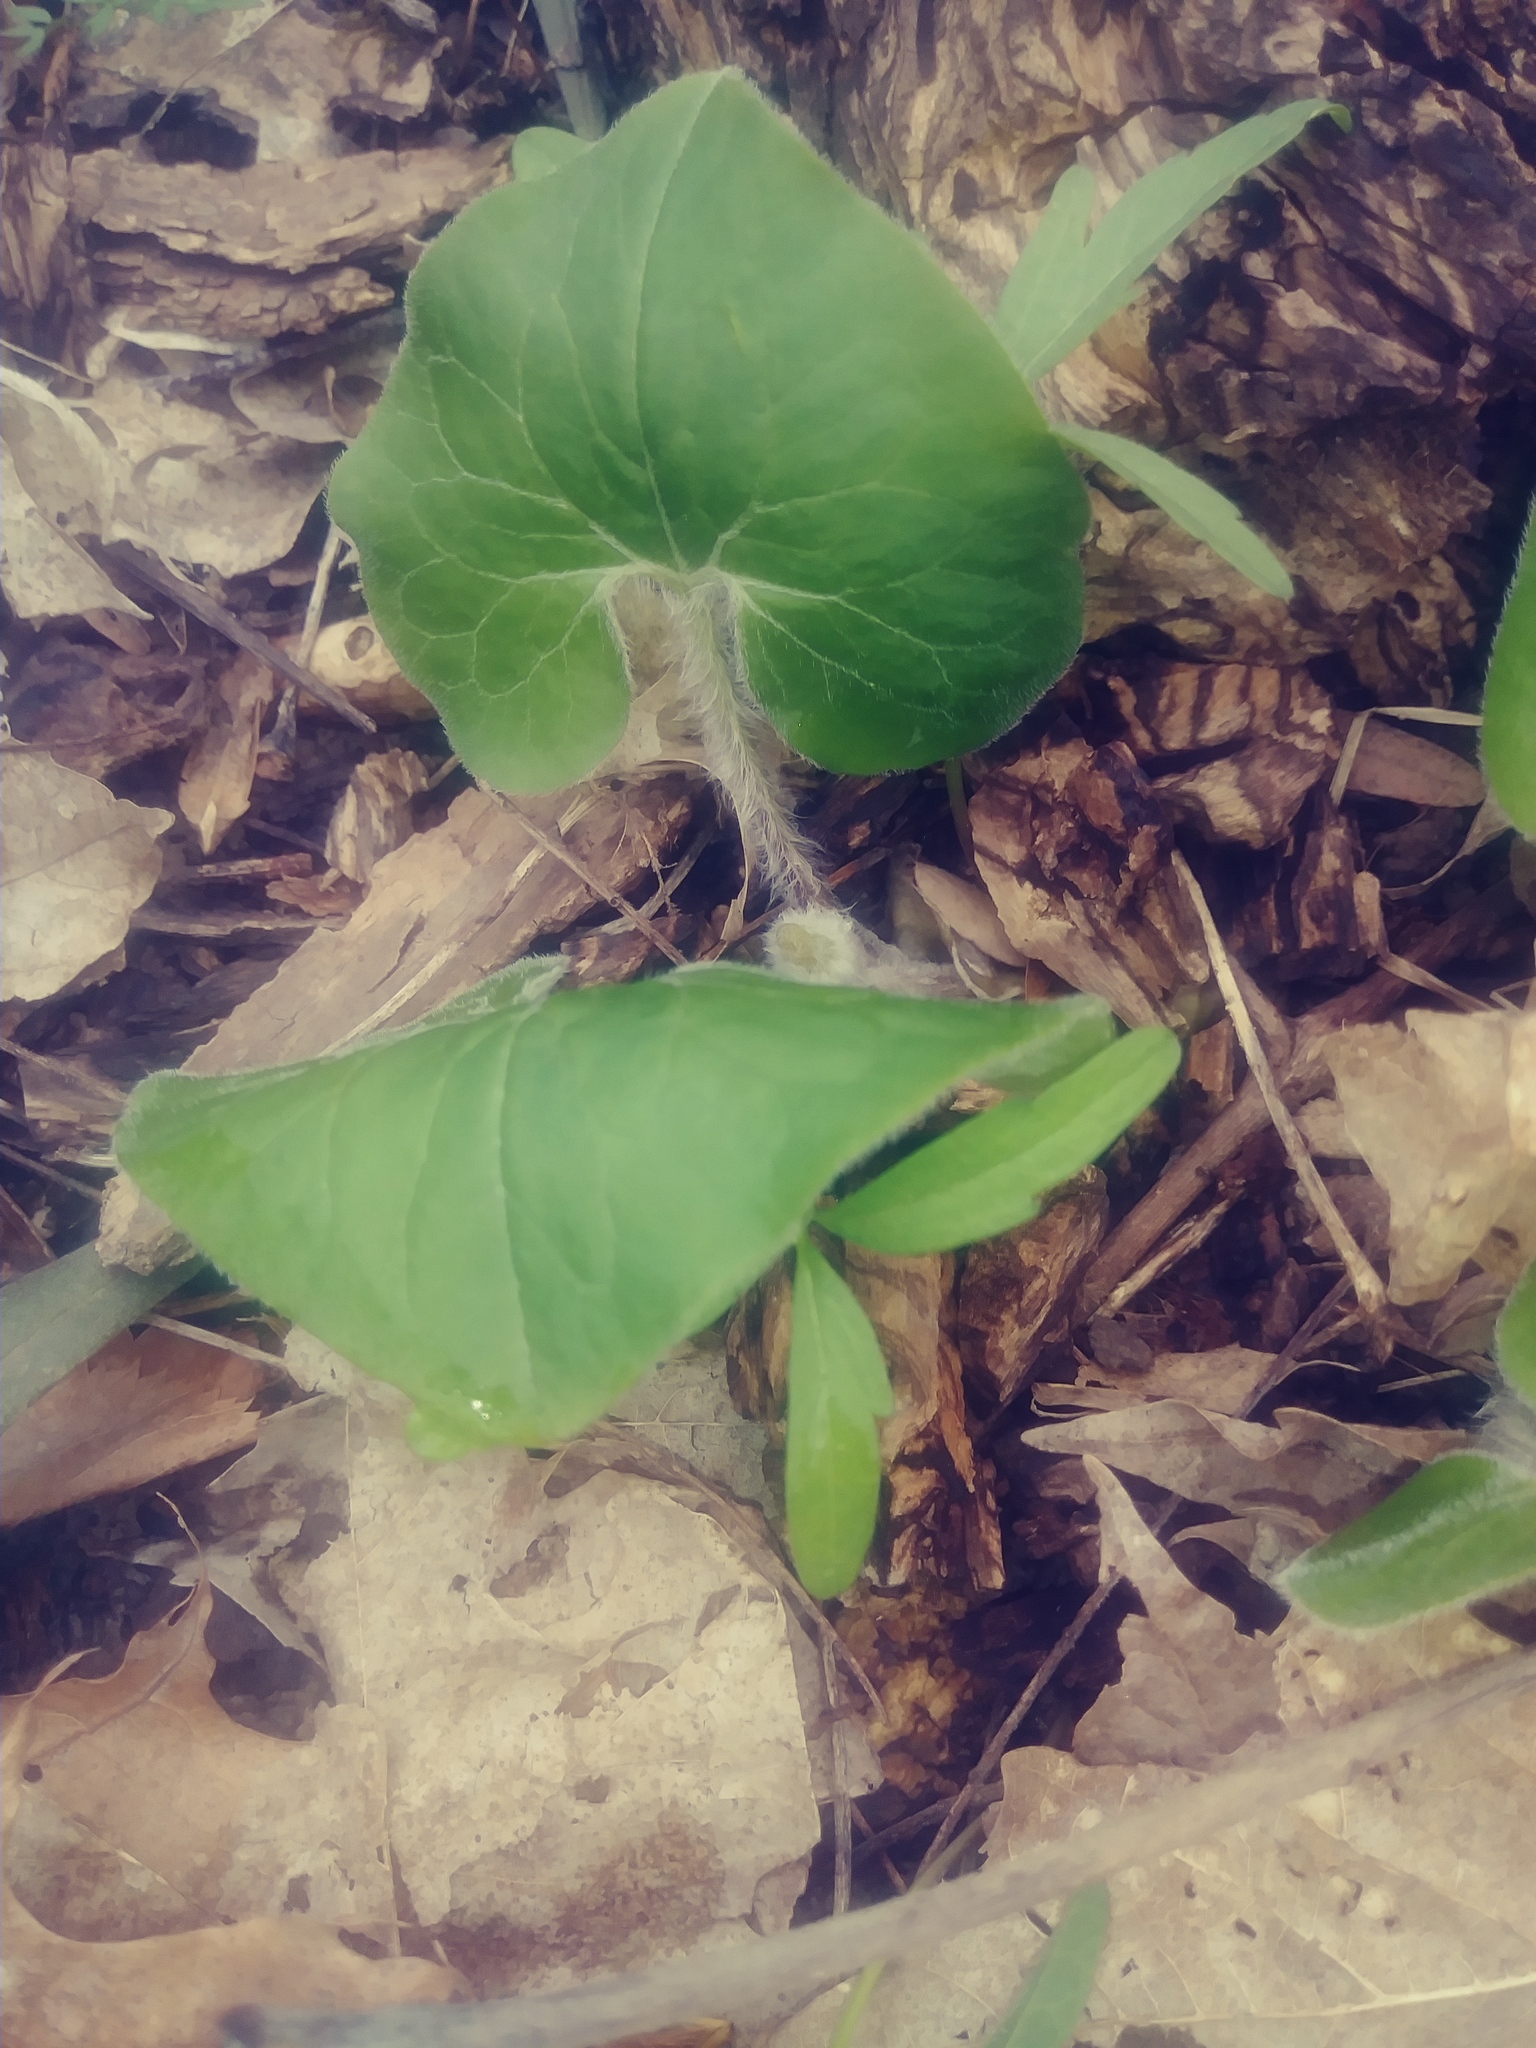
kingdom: Plantae
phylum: Tracheophyta
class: Magnoliopsida
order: Piperales
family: Aristolochiaceae
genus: Asarum
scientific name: Asarum canadense
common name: Wild ginger
